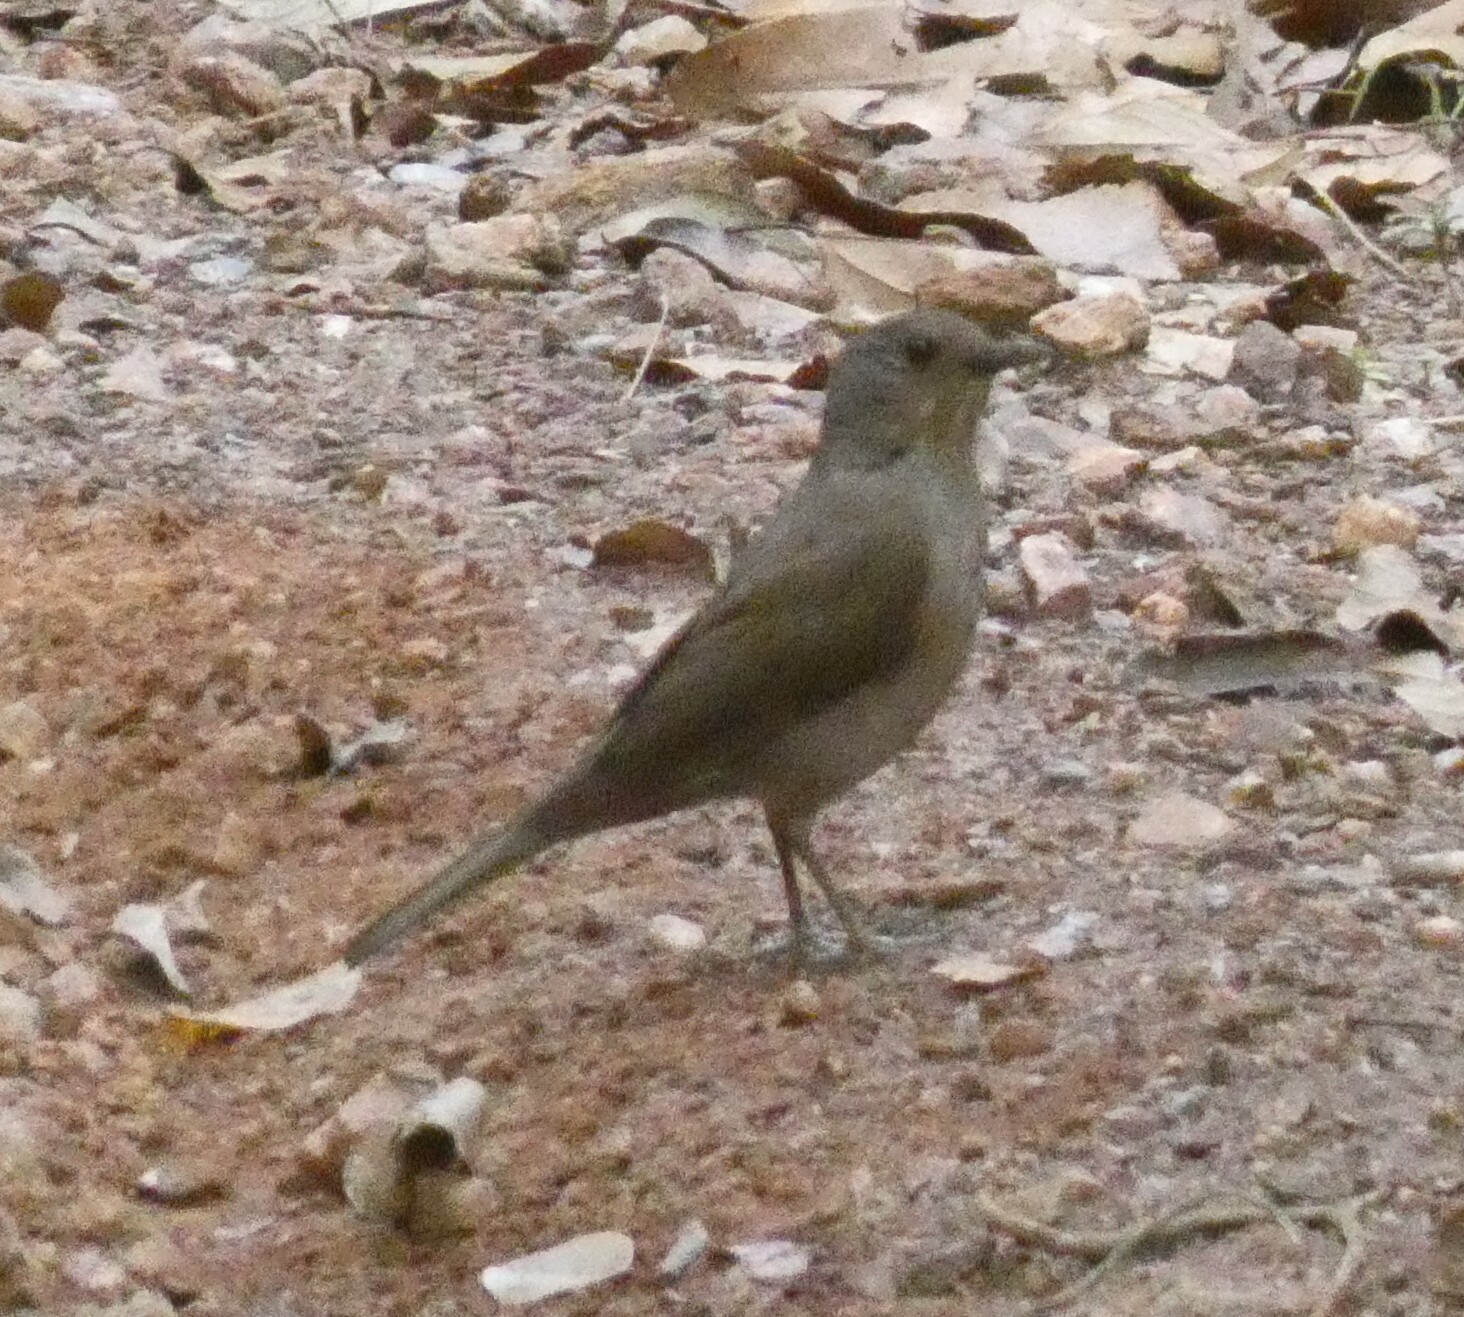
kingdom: Animalia
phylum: Chordata
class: Aves
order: Passeriformes
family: Turdidae
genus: Turdus
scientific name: Turdus leucomelas
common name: Pale-breasted thrush
